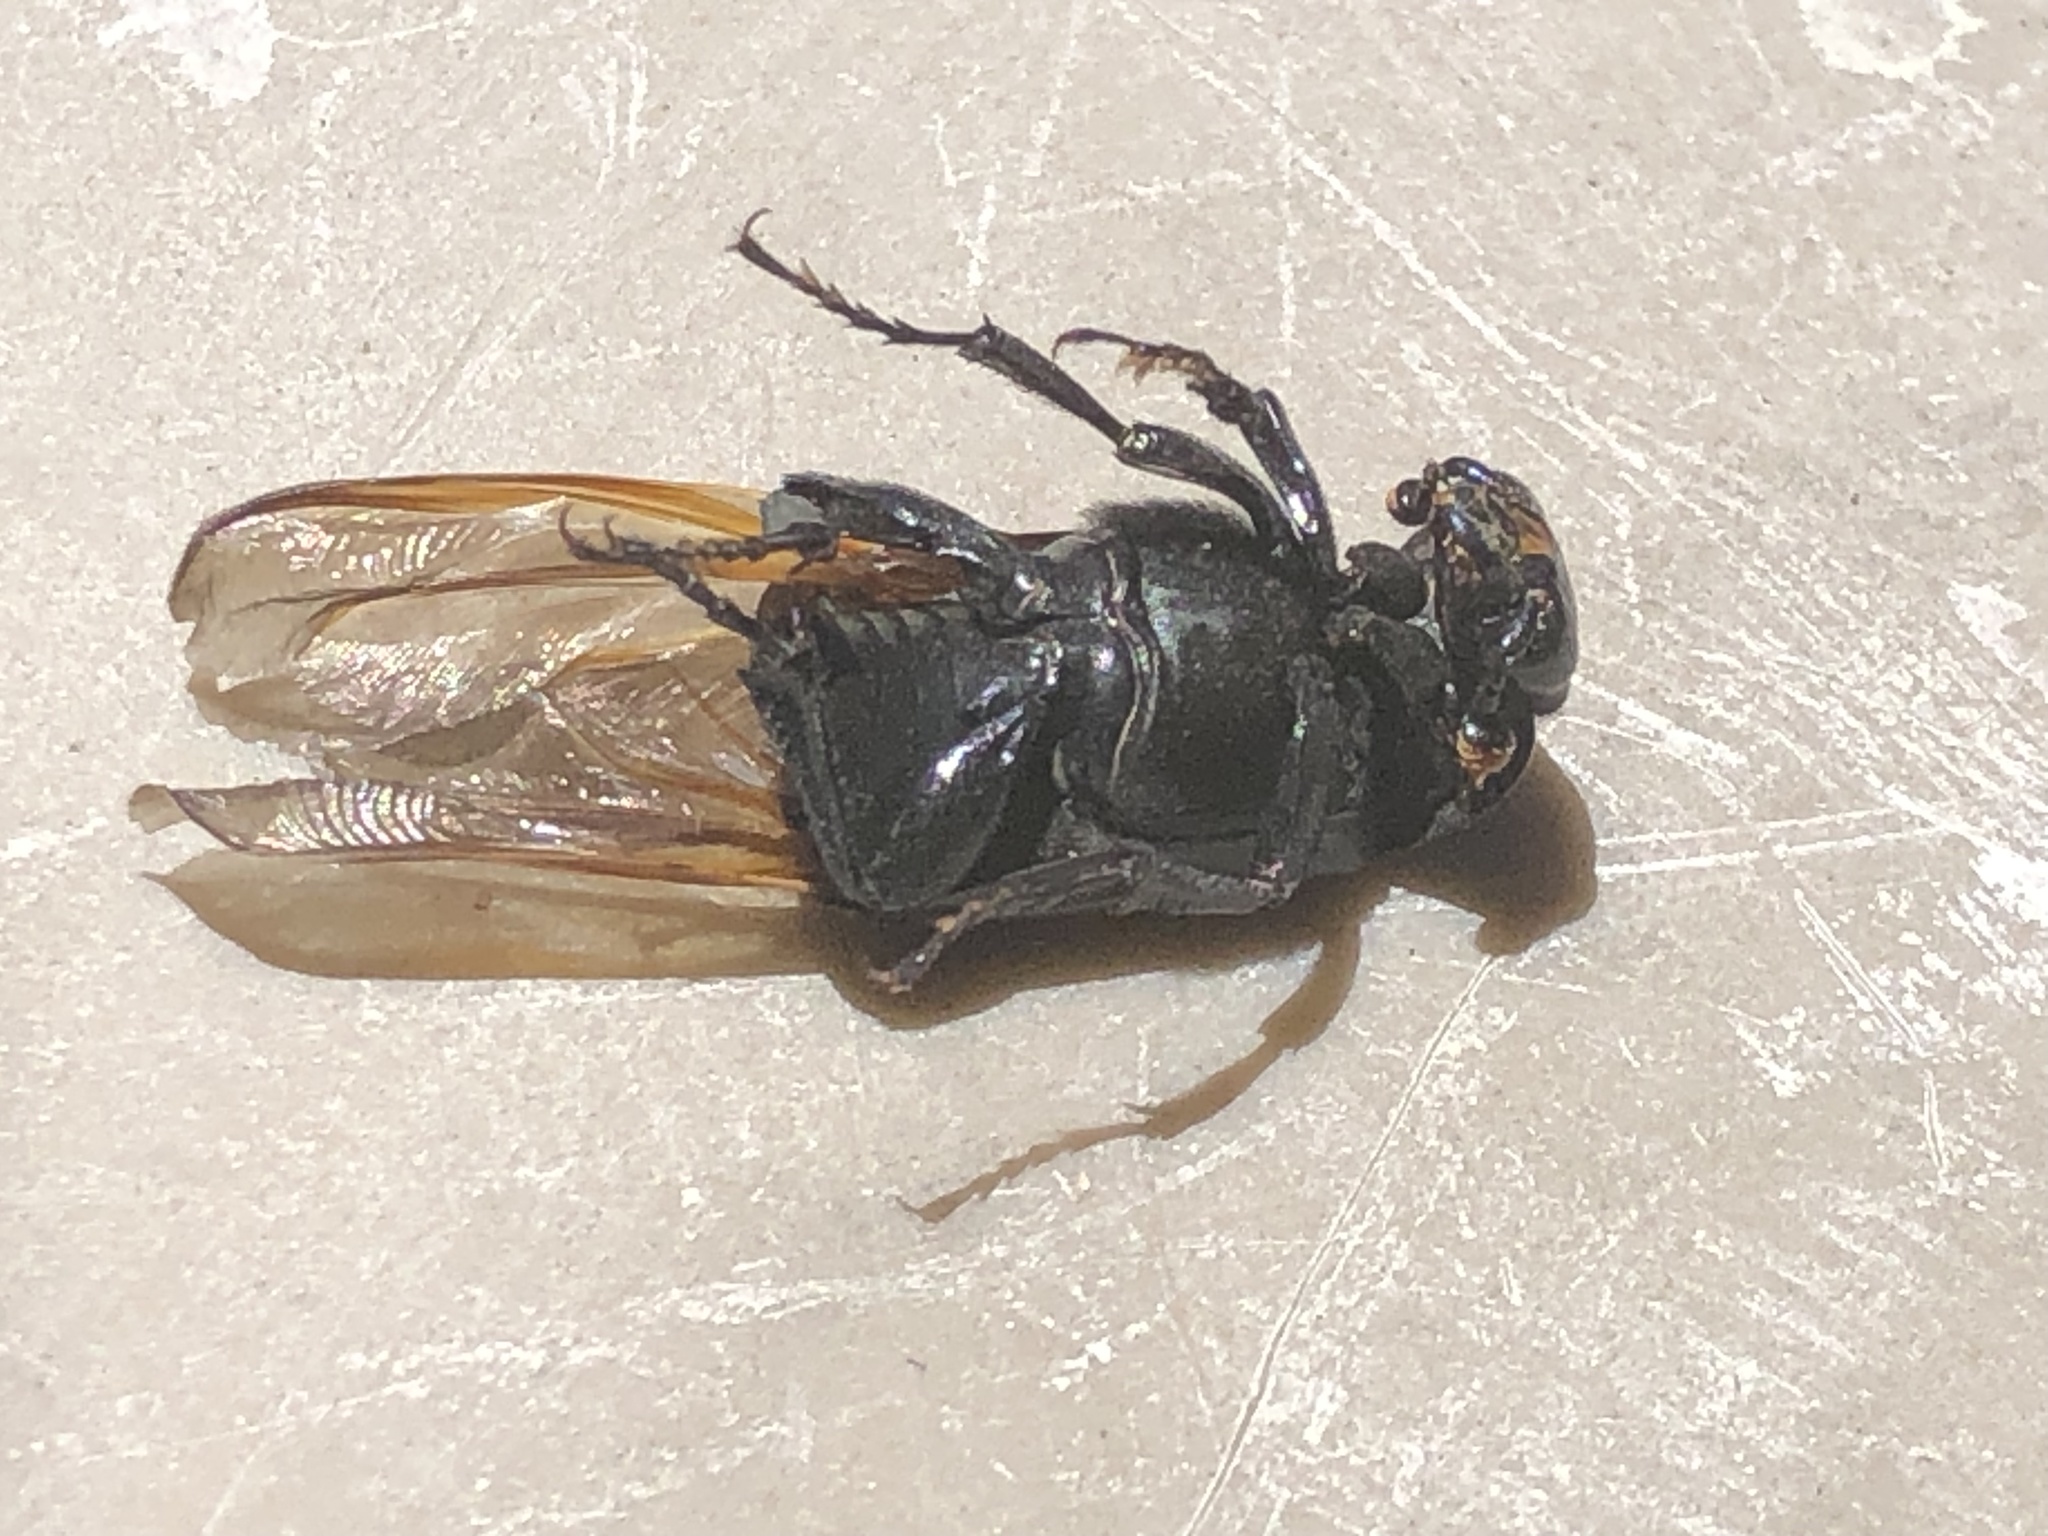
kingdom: Animalia
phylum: Arthropoda
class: Insecta
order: Coleoptera
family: Staphylinidae
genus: Nicrophorus
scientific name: Nicrophorus nigrita
